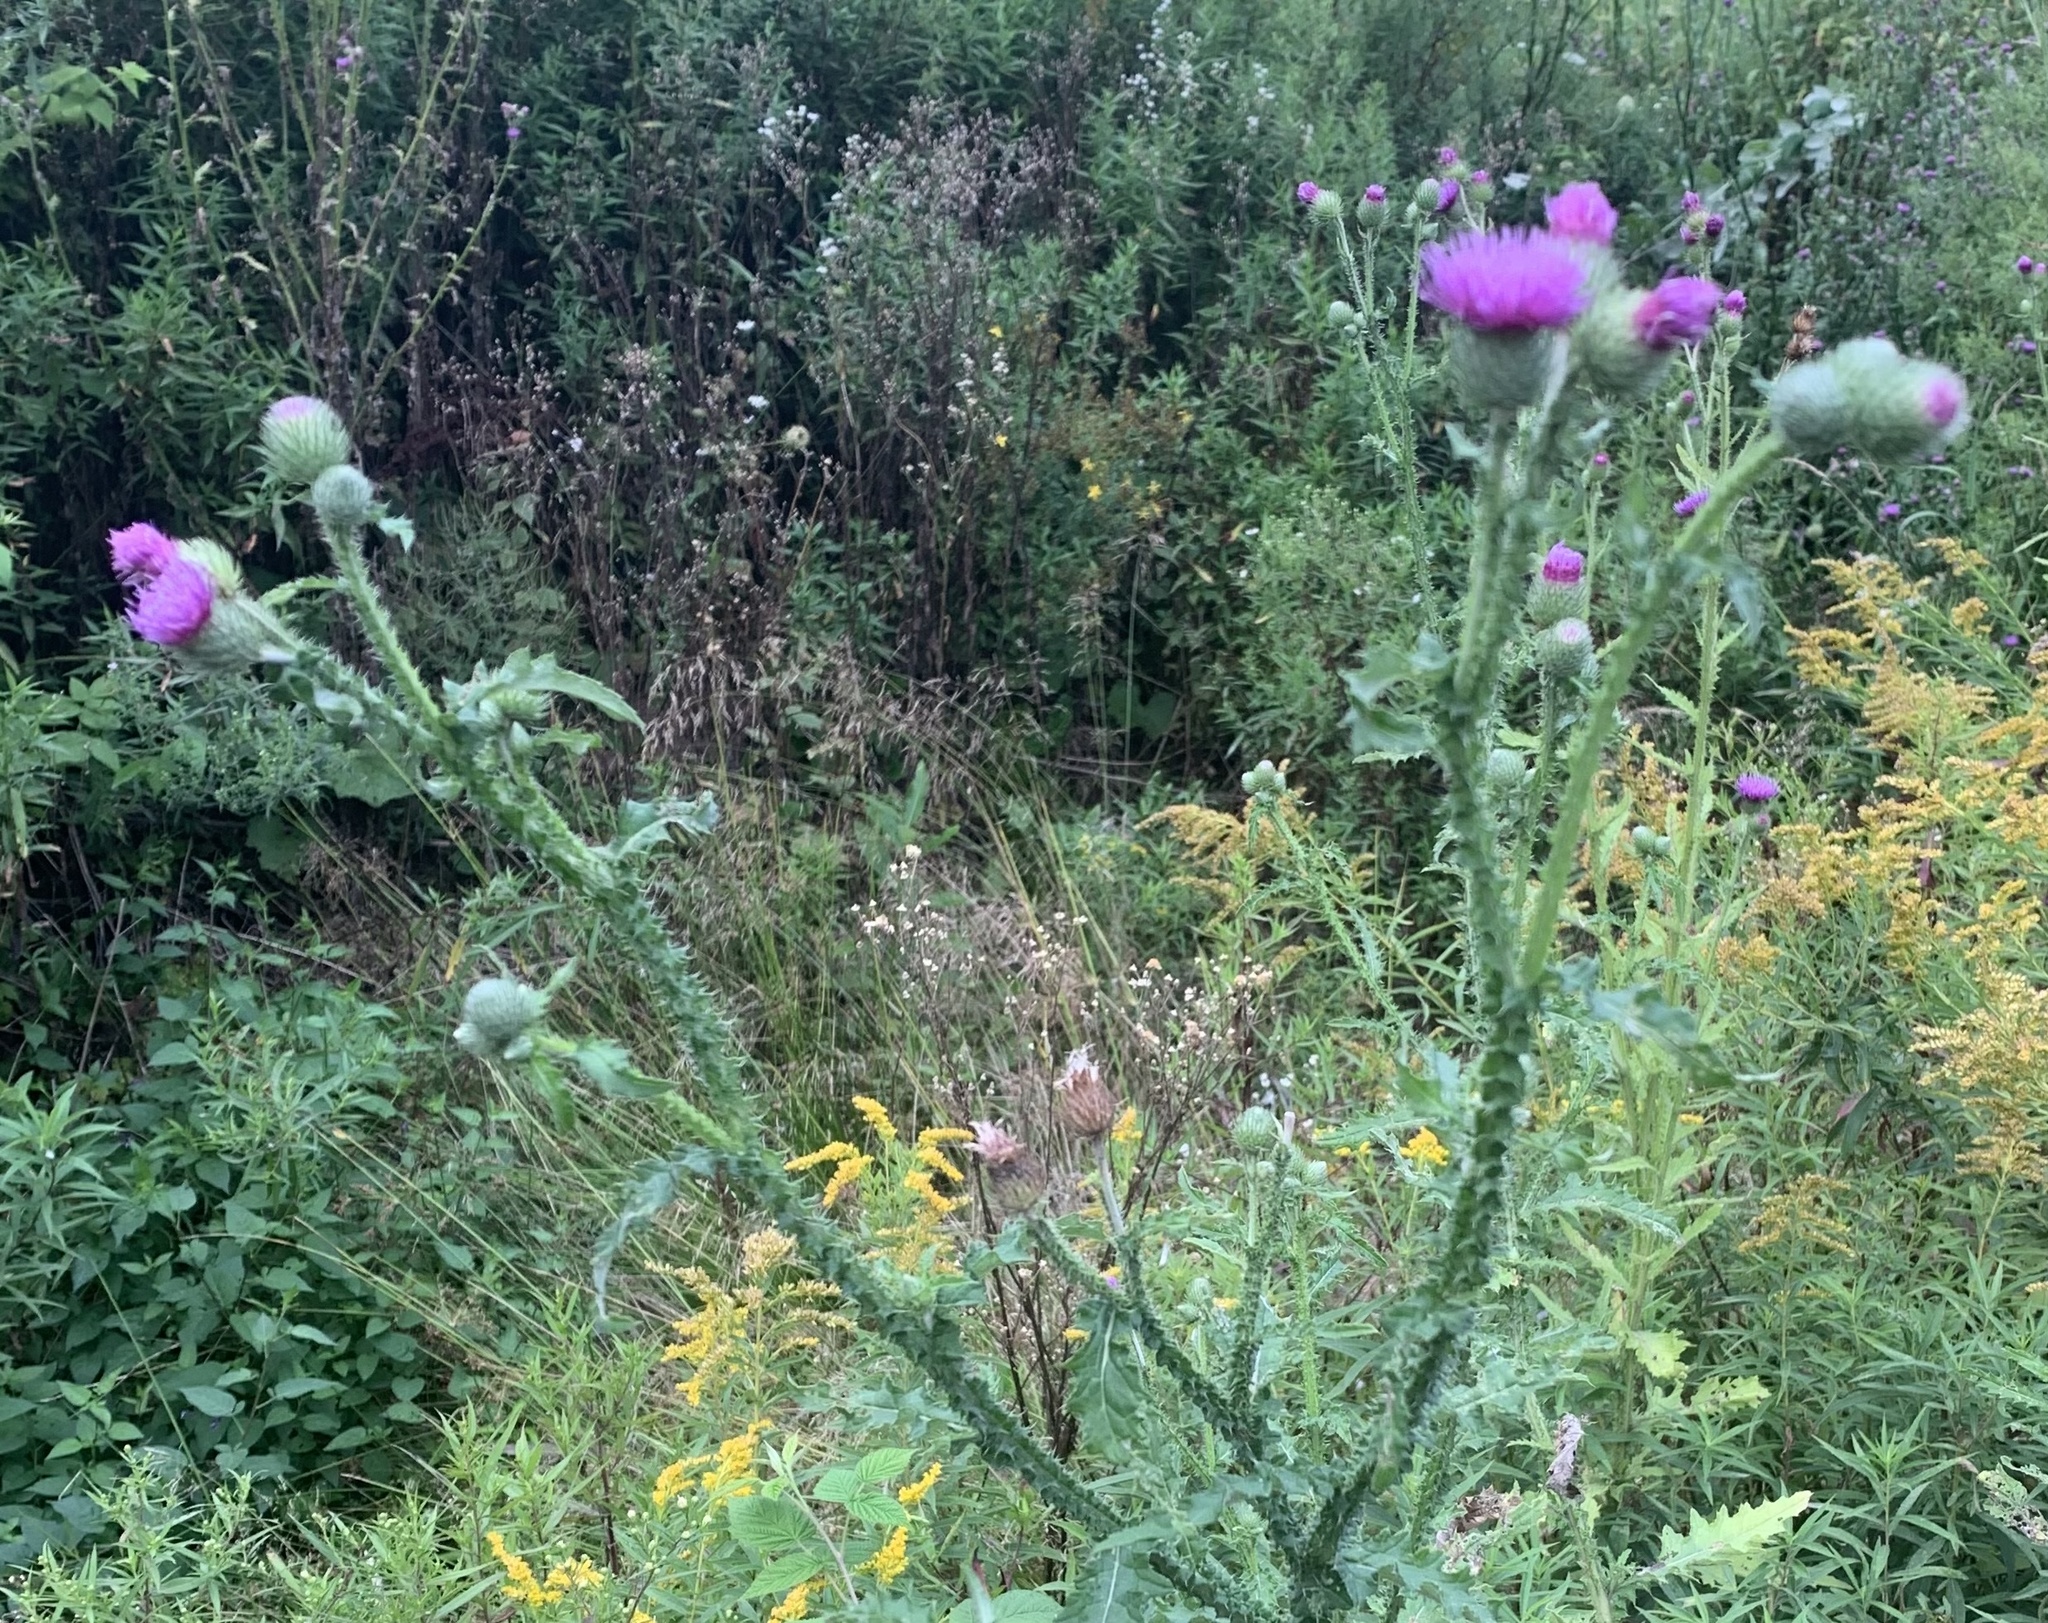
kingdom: Plantae
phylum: Tracheophyta
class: Magnoliopsida
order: Asterales
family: Asteraceae
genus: Carduus
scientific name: Carduus crispus
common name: Welted thistle
